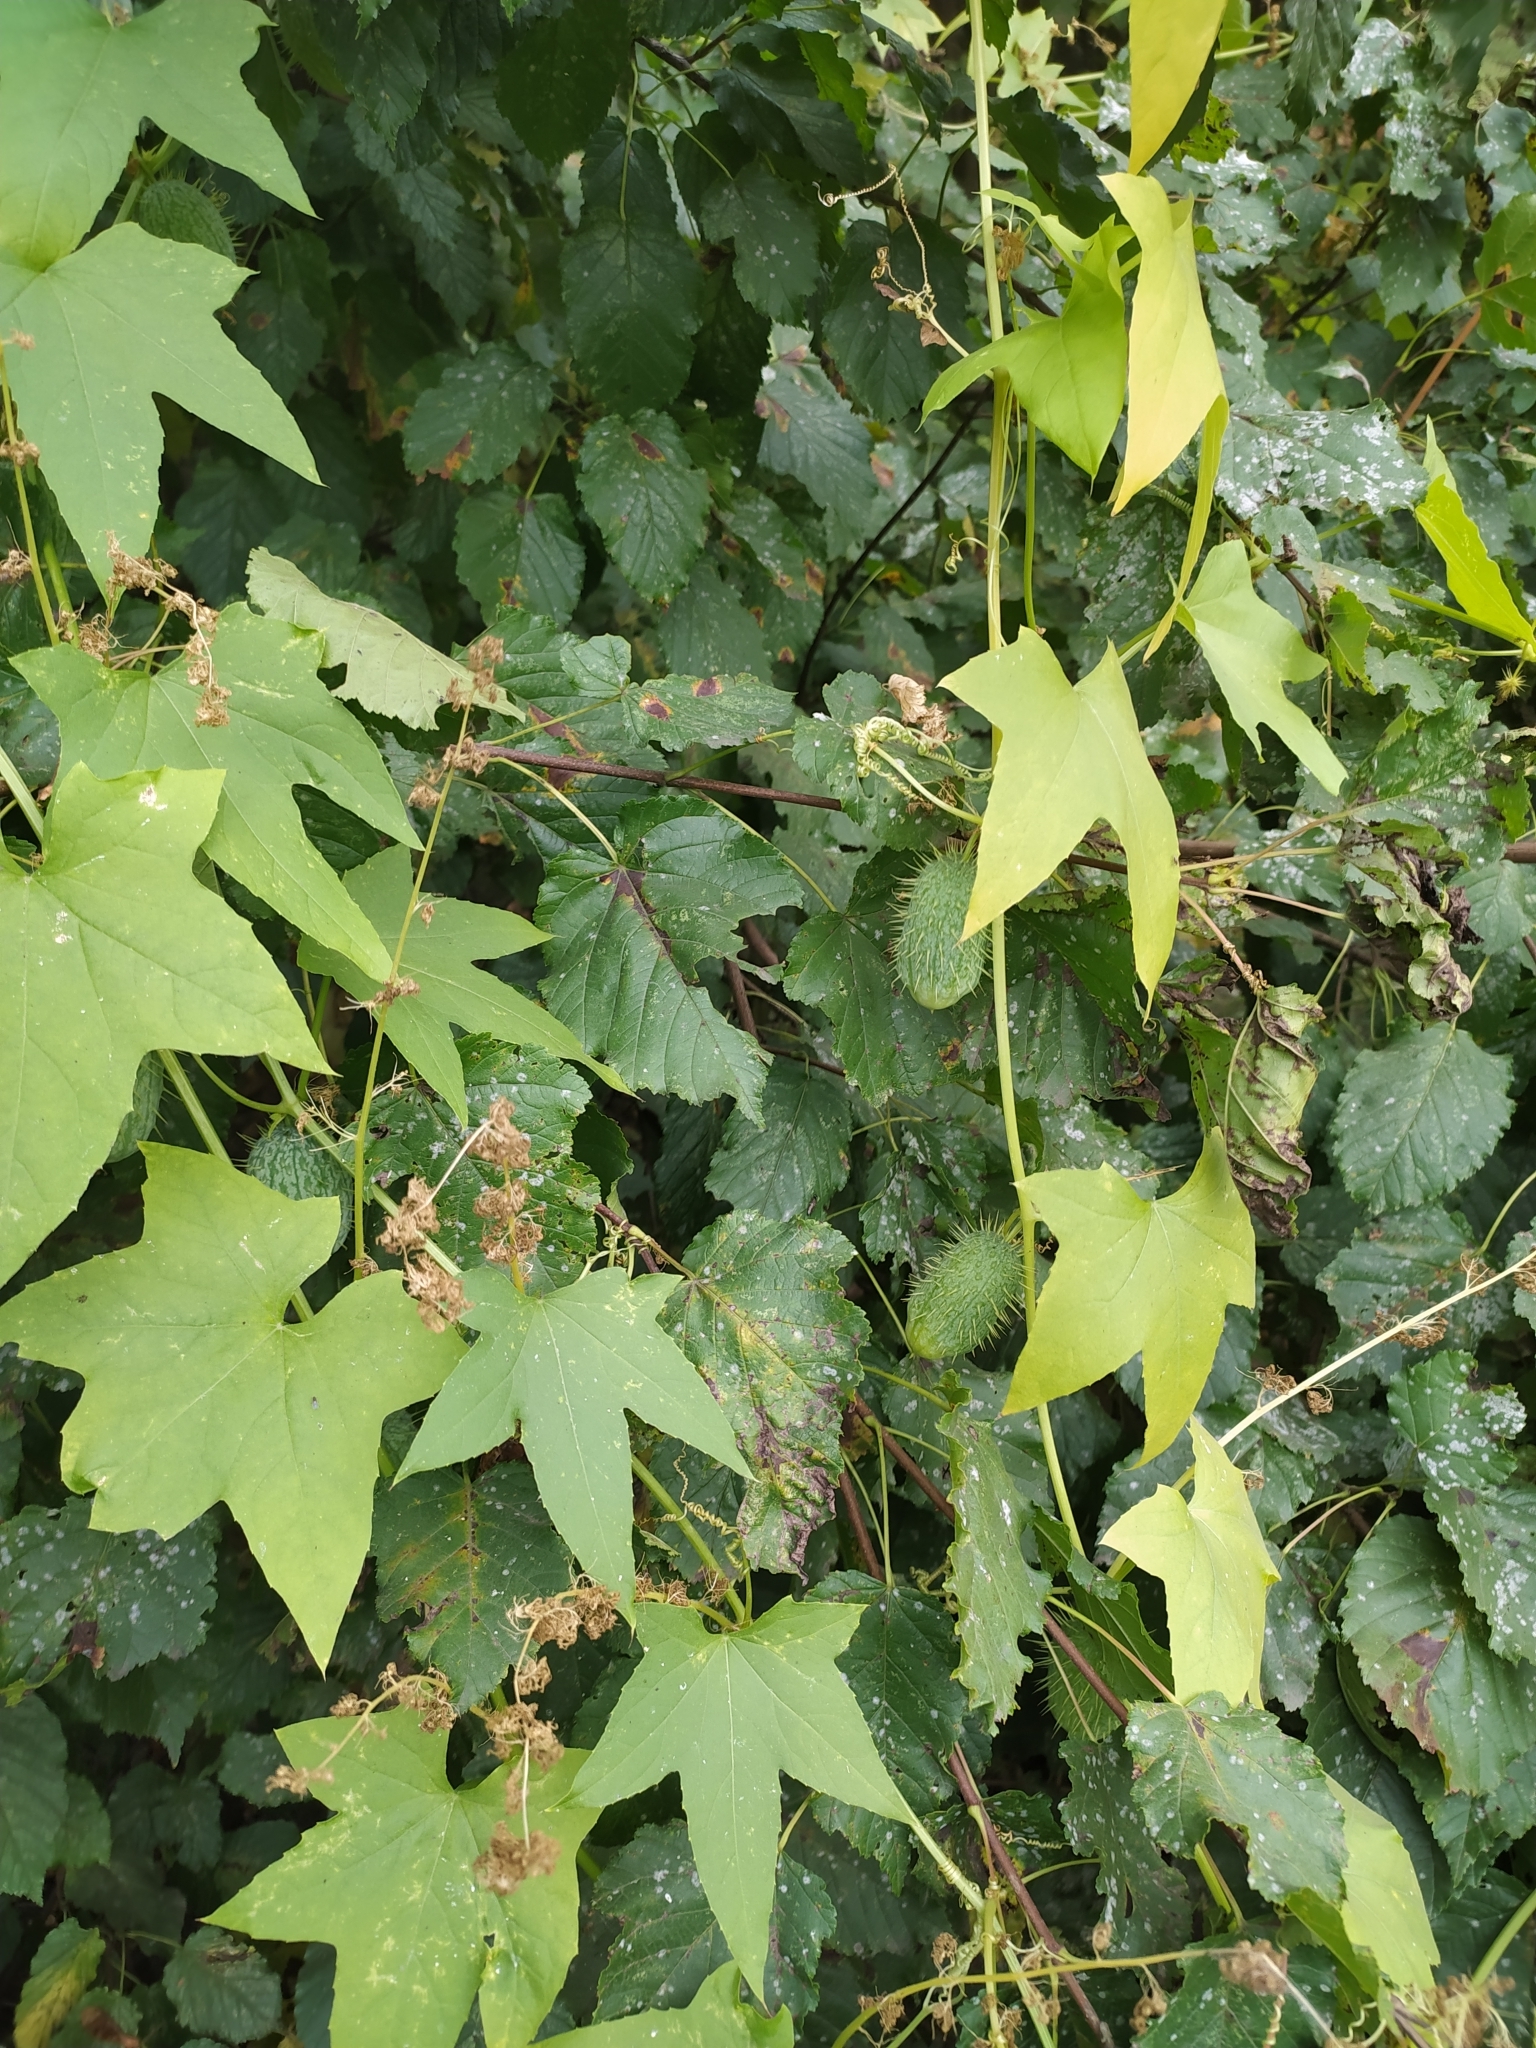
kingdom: Plantae
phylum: Tracheophyta
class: Magnoliopsida
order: Cucurbitales
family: Cucurbitaceae
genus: Echinocystis
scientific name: Echinocystis lobata
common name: Wild cucumber
